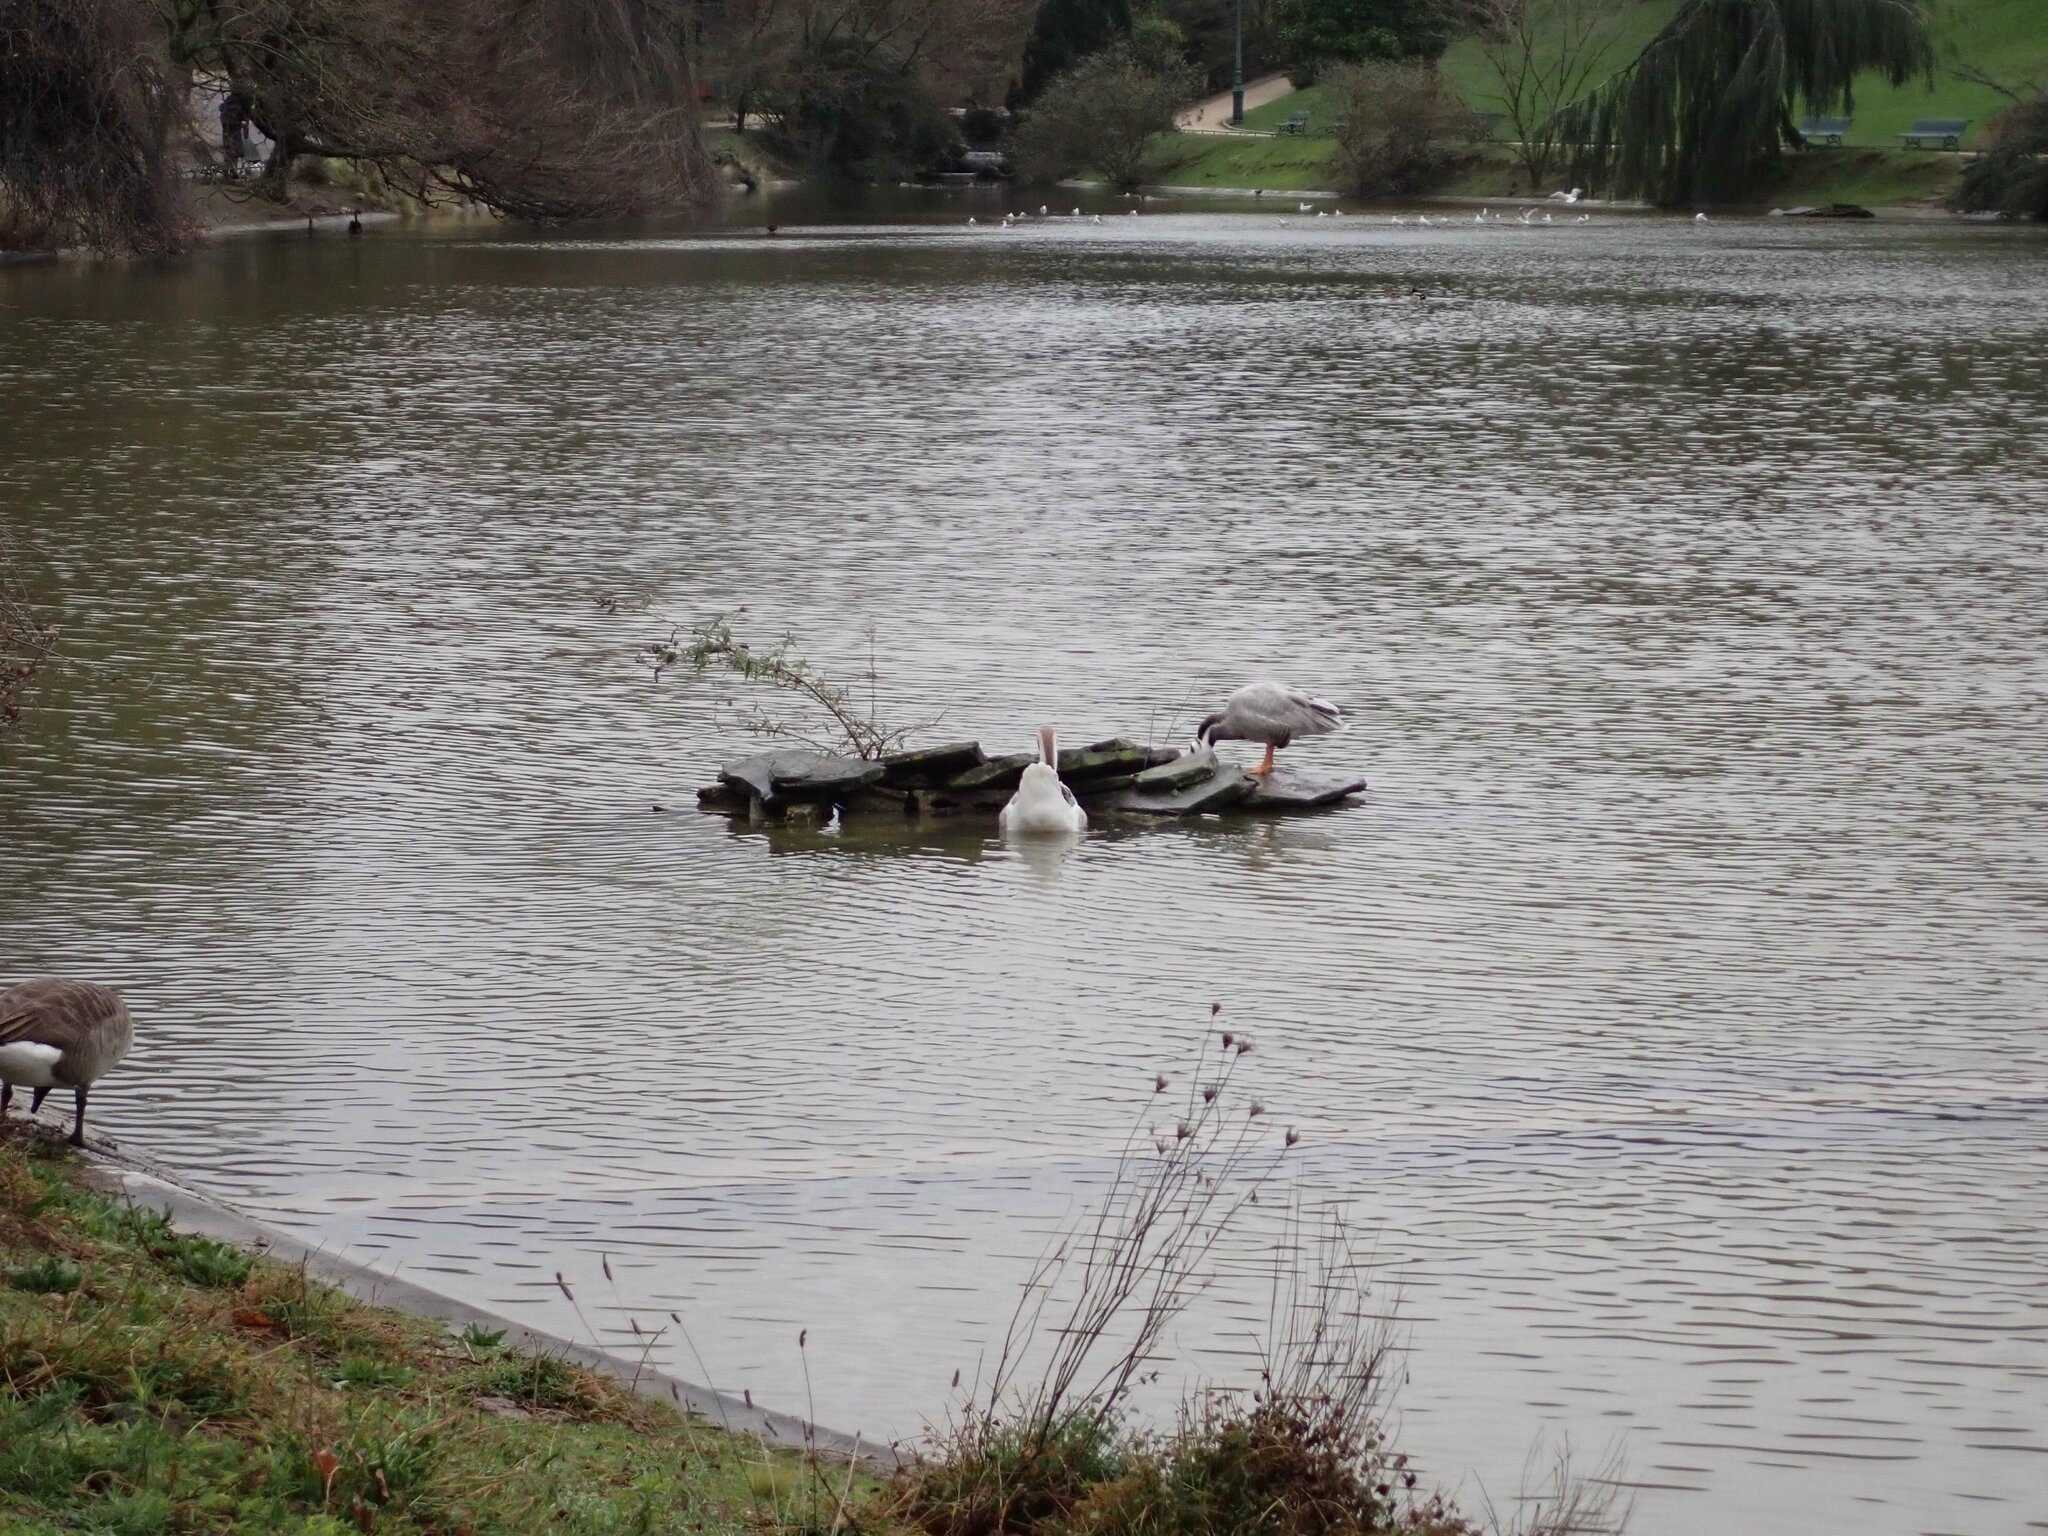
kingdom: Animalia
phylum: Chordata
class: Aves
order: Anseriformes
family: Anatidae
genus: Anser
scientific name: Anser indicus
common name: Bar-headed goose
